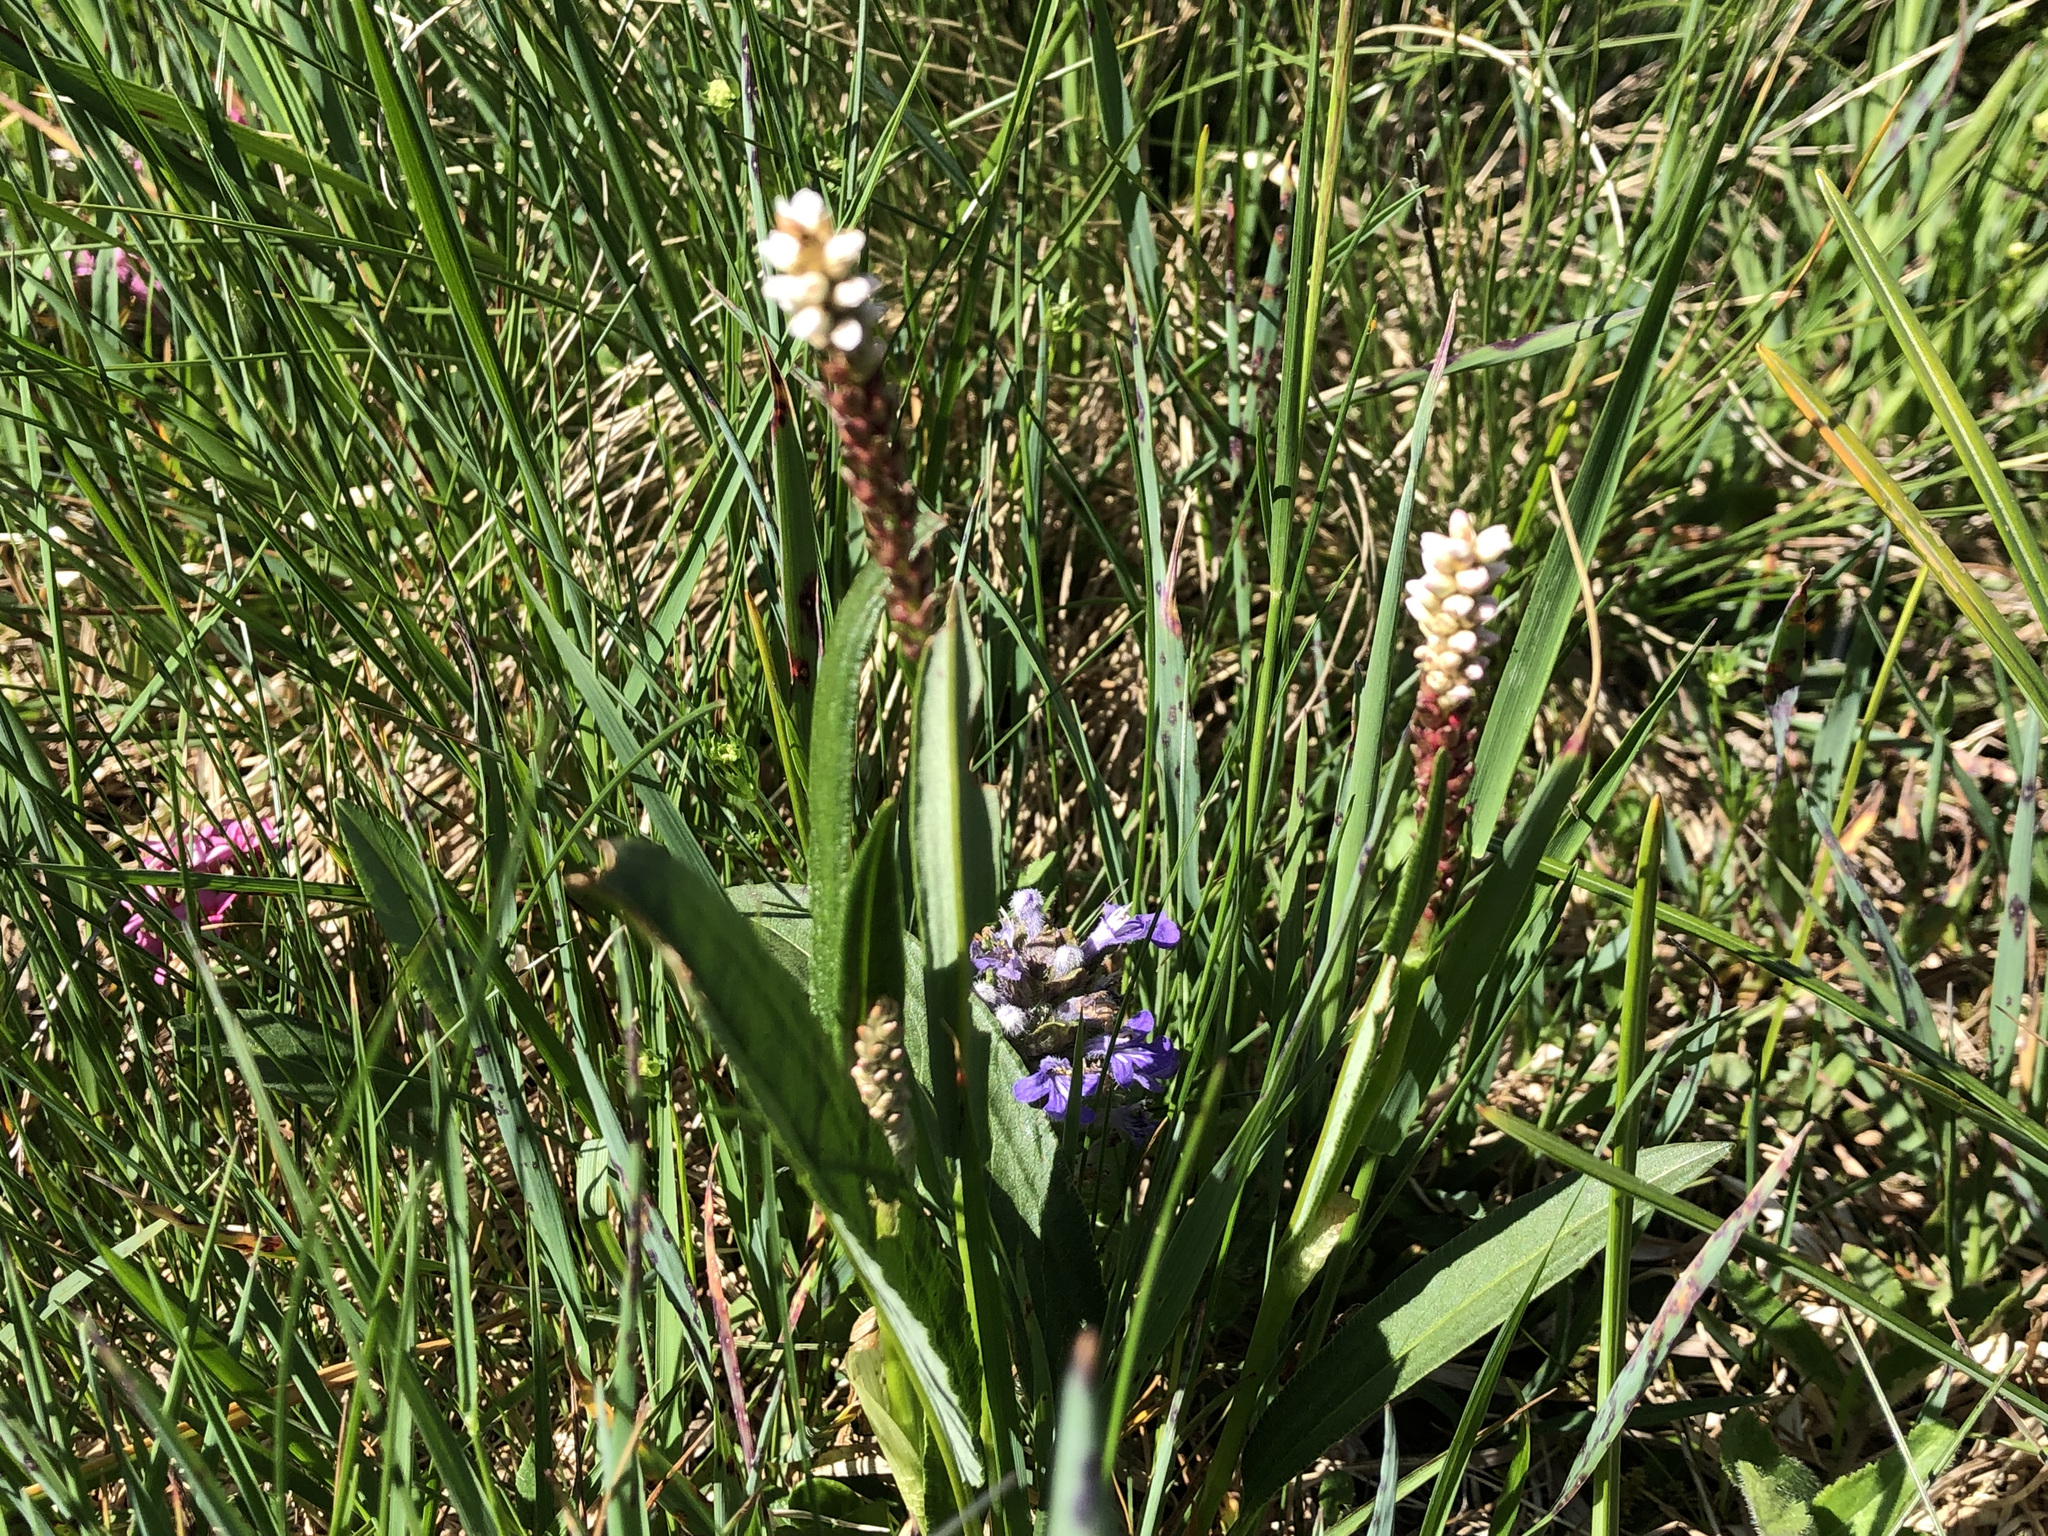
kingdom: Plantae
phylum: Tracheophyta
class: Magnoliopsida
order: Caryophyllales
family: Polygonaceae
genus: Bistorta
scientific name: Bistorta vivipara
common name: Alpine bistort
